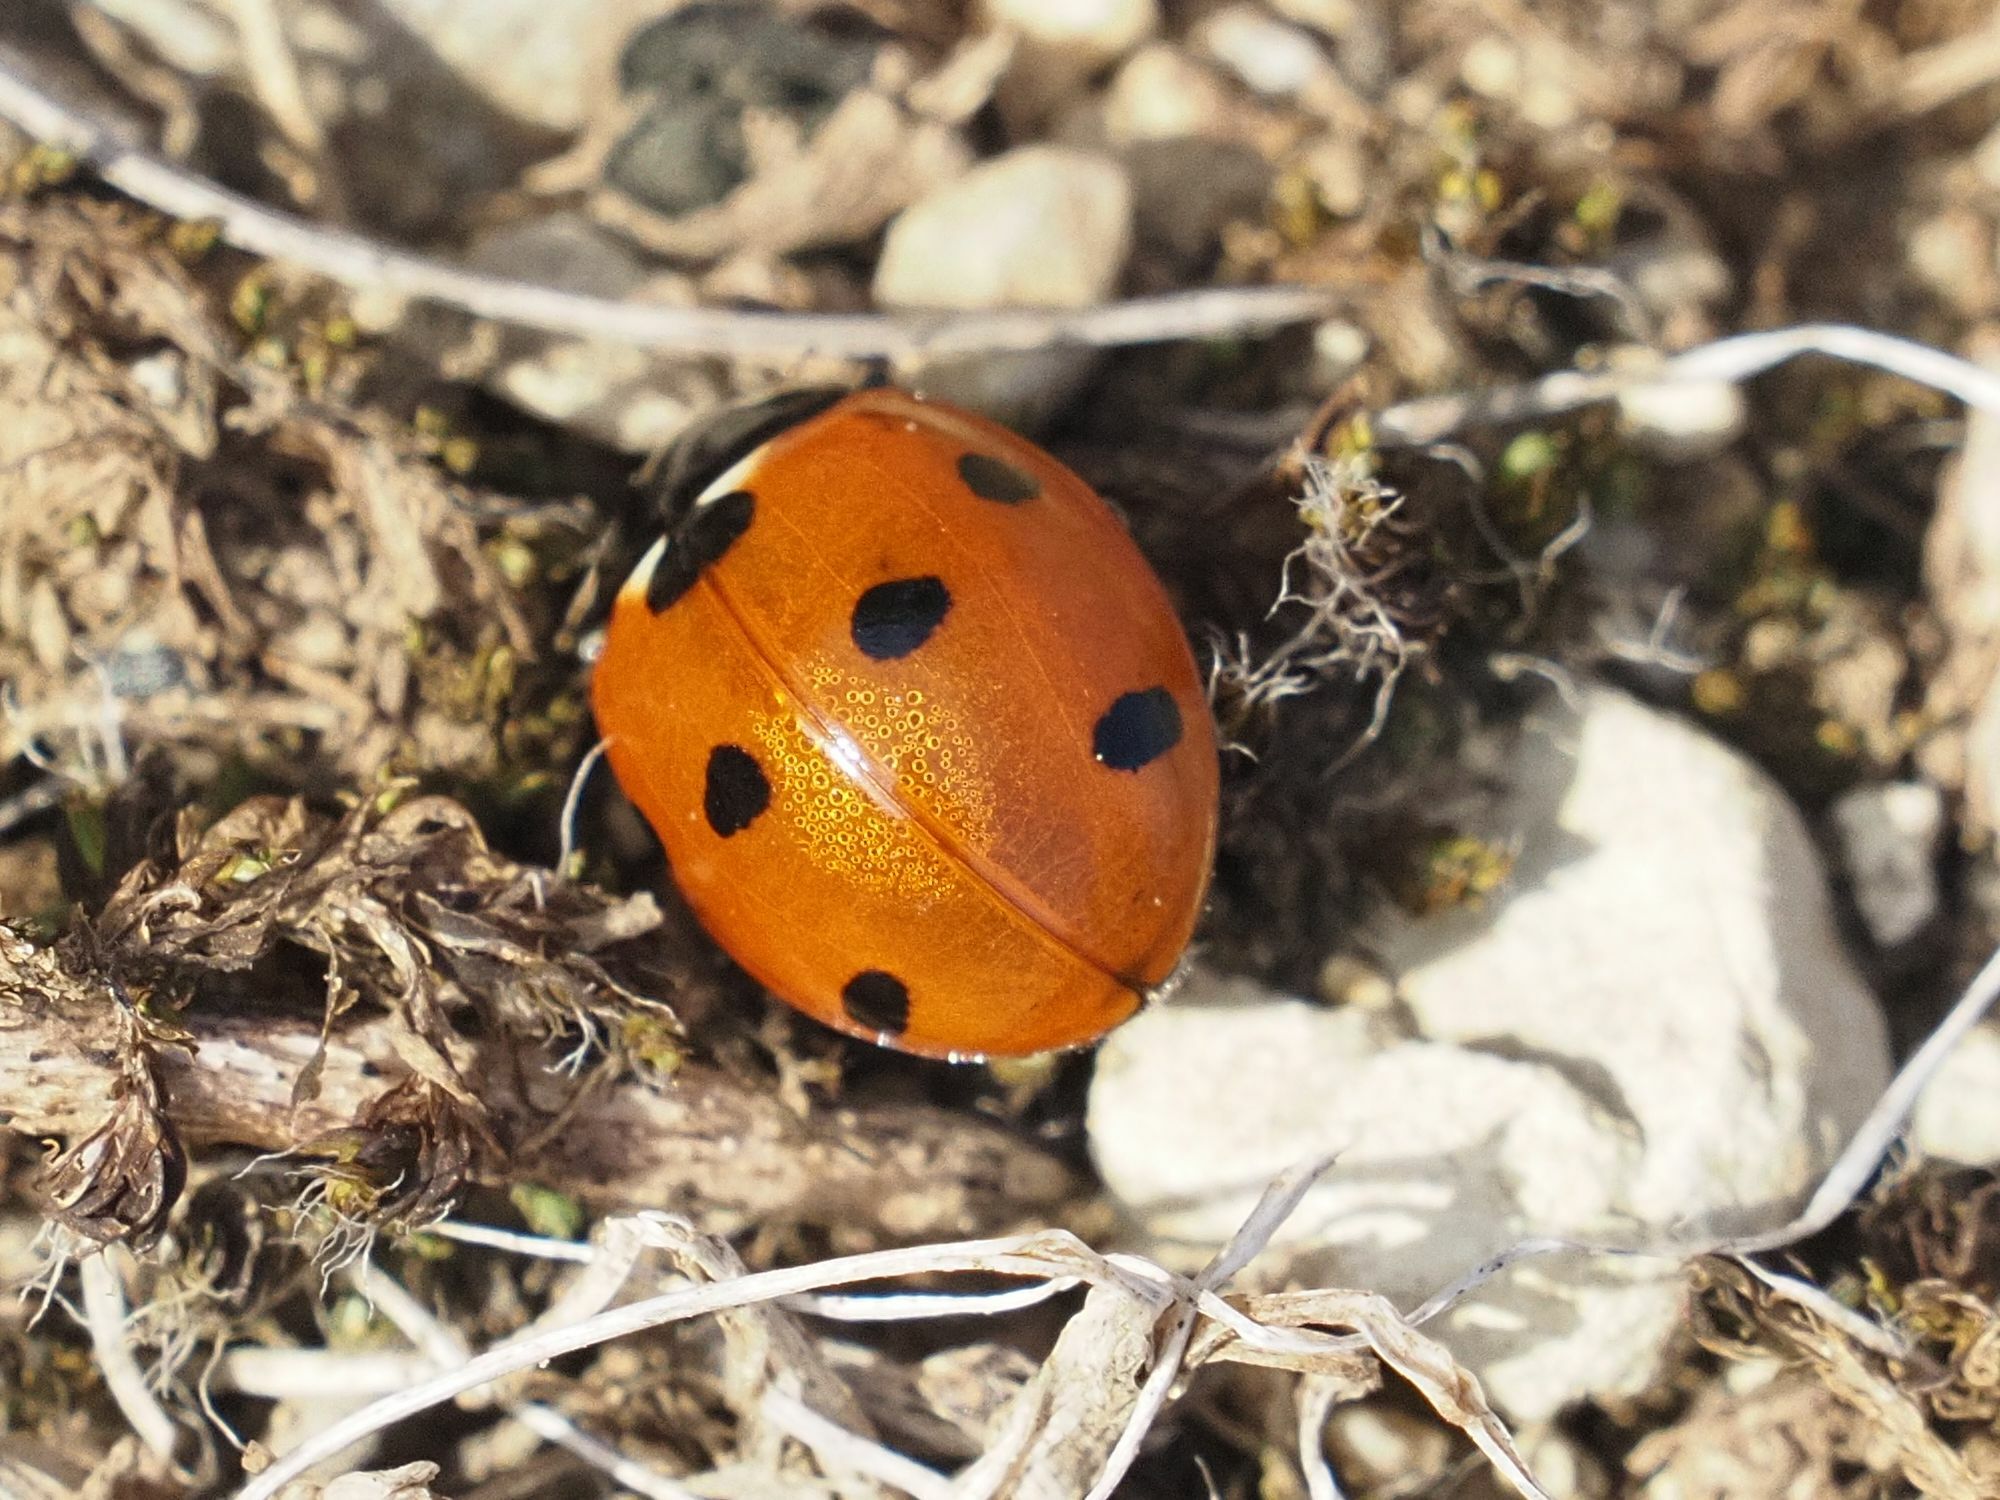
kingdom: Animalia
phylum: Arthropoda
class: Insecta
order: Coleoptera
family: Coccinellidae
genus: Coccinella
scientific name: Coccinella septempunctata
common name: Sevenspotted lady beetle
